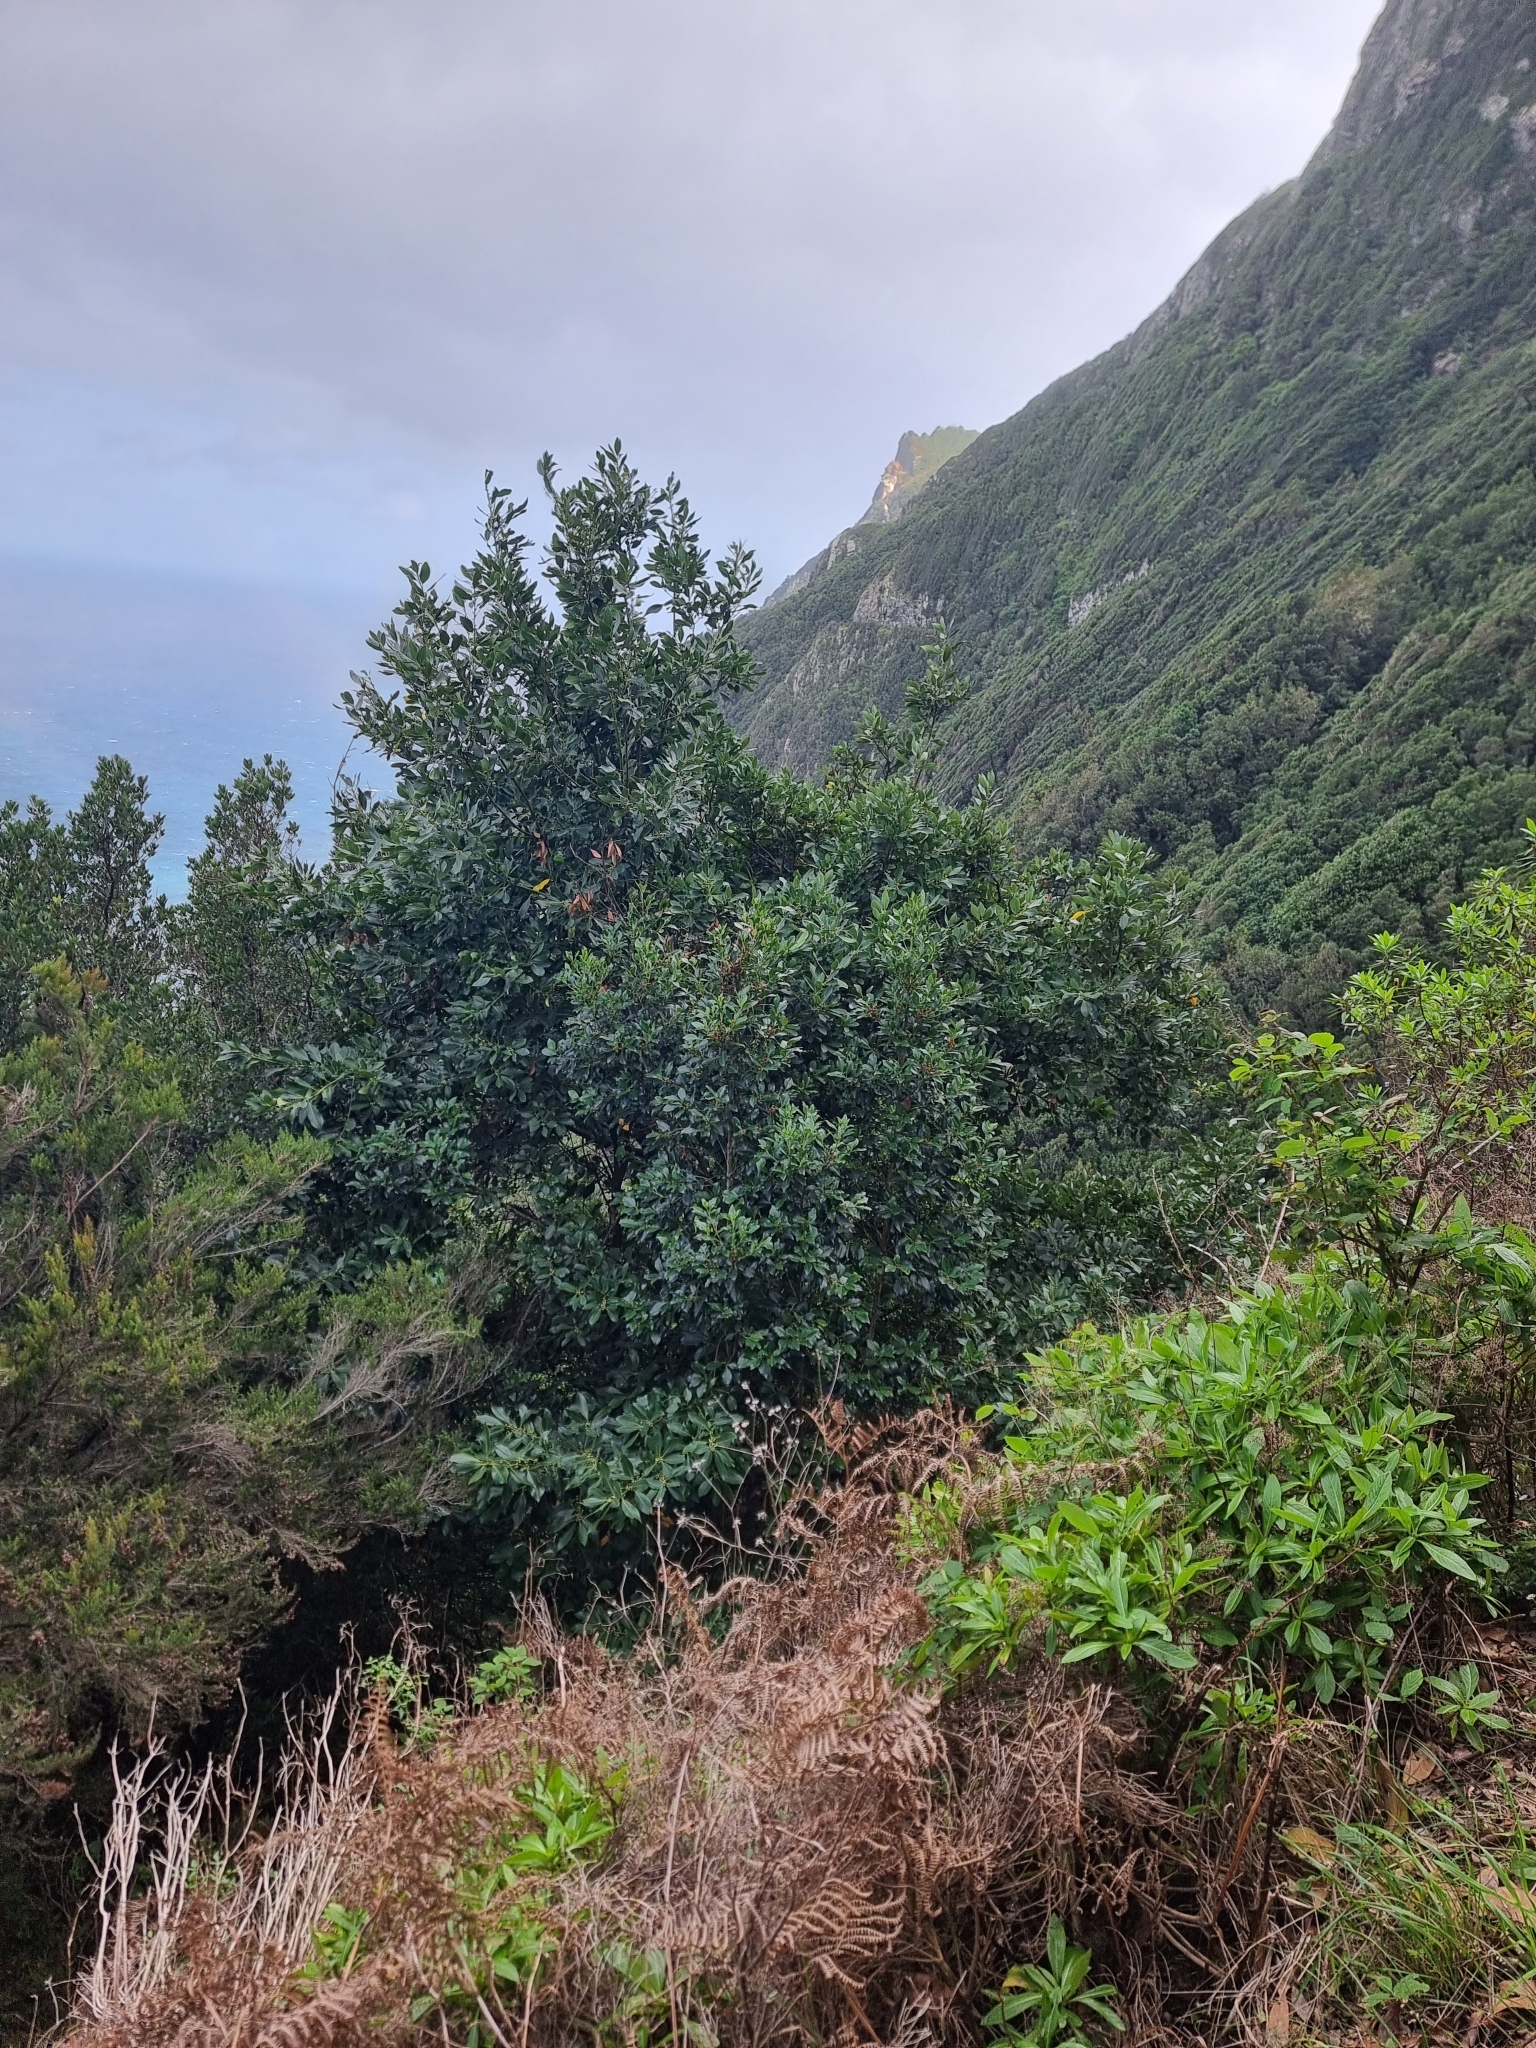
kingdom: Plantae
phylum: Tracheophyta
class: Magnoliopsida
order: Aquifoliales
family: Aquifoliaceae
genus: Ilex
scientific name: Ilex canariensis
